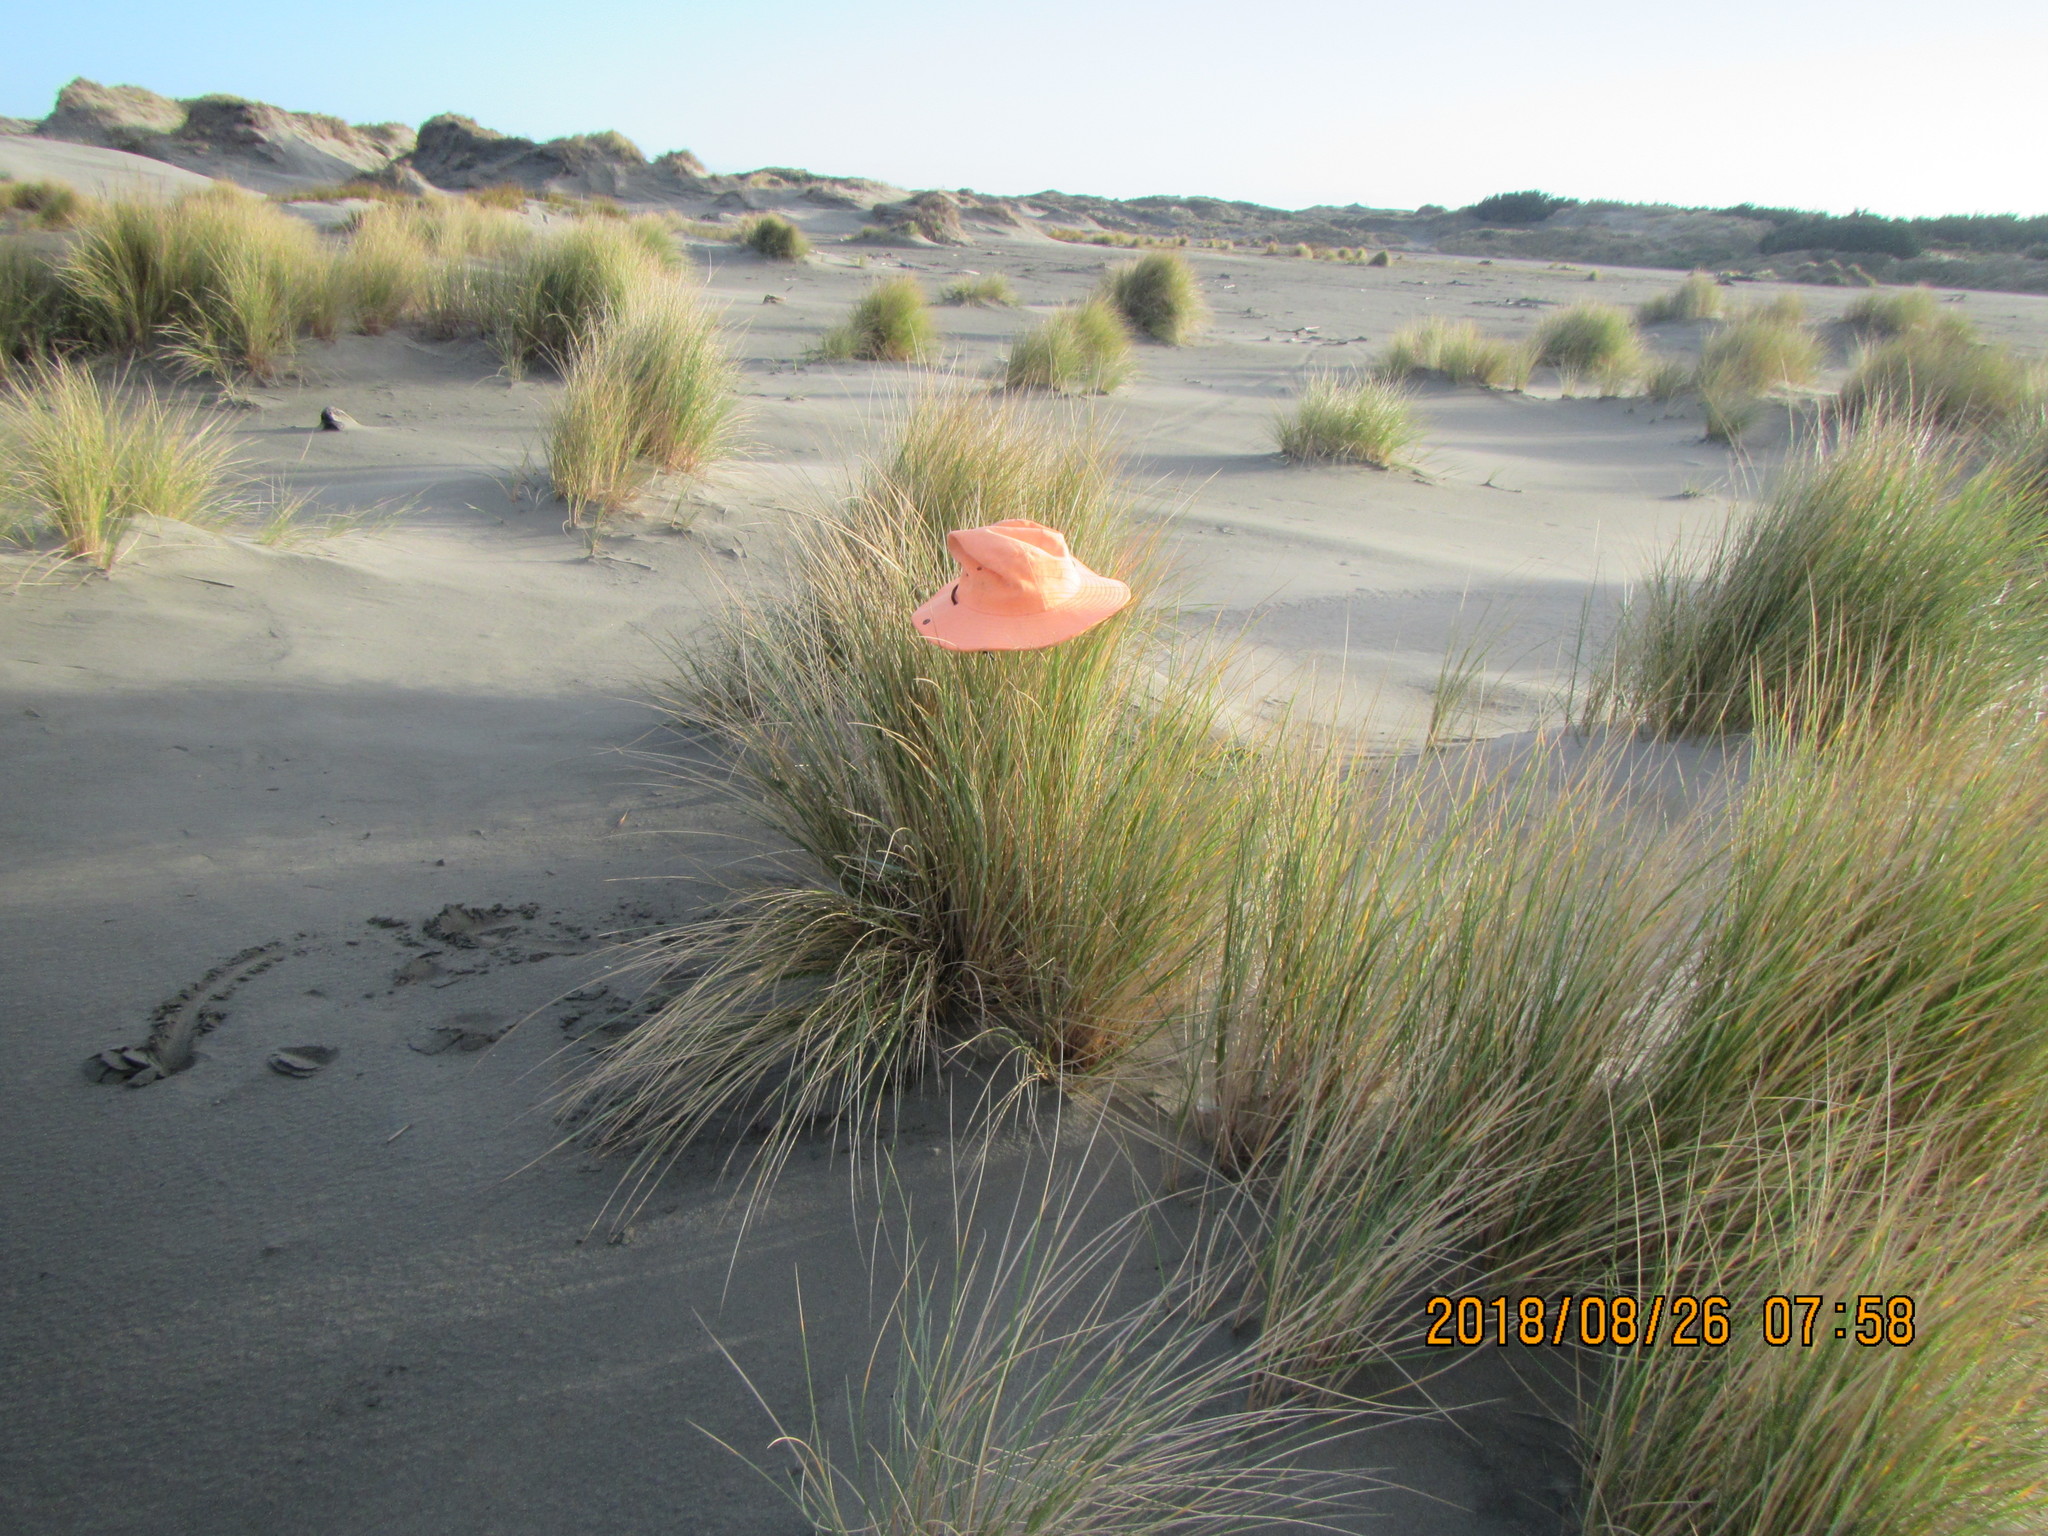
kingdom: Animalia
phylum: Arthropoda
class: Arachnida
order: Araneae
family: Salticidae
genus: Maratus
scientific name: Maratus griseus
